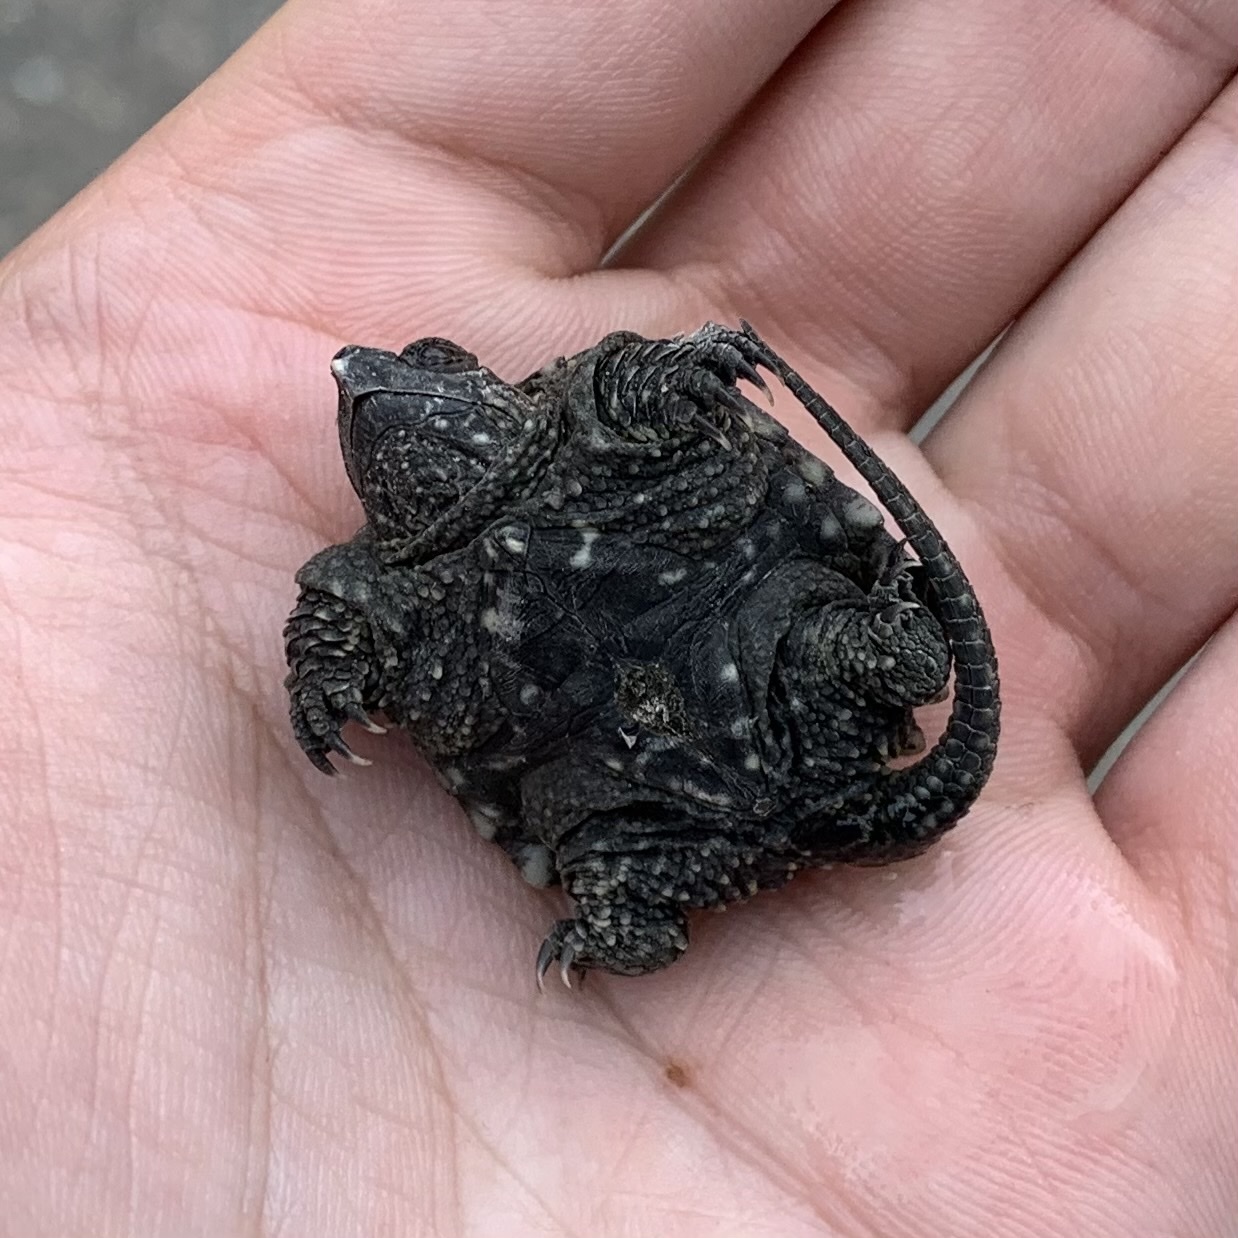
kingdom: Animalia
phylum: Chordata
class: Testudines
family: Chelydridae
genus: Chelydra
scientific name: Chelydra serpentina
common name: Common snapping turtle
